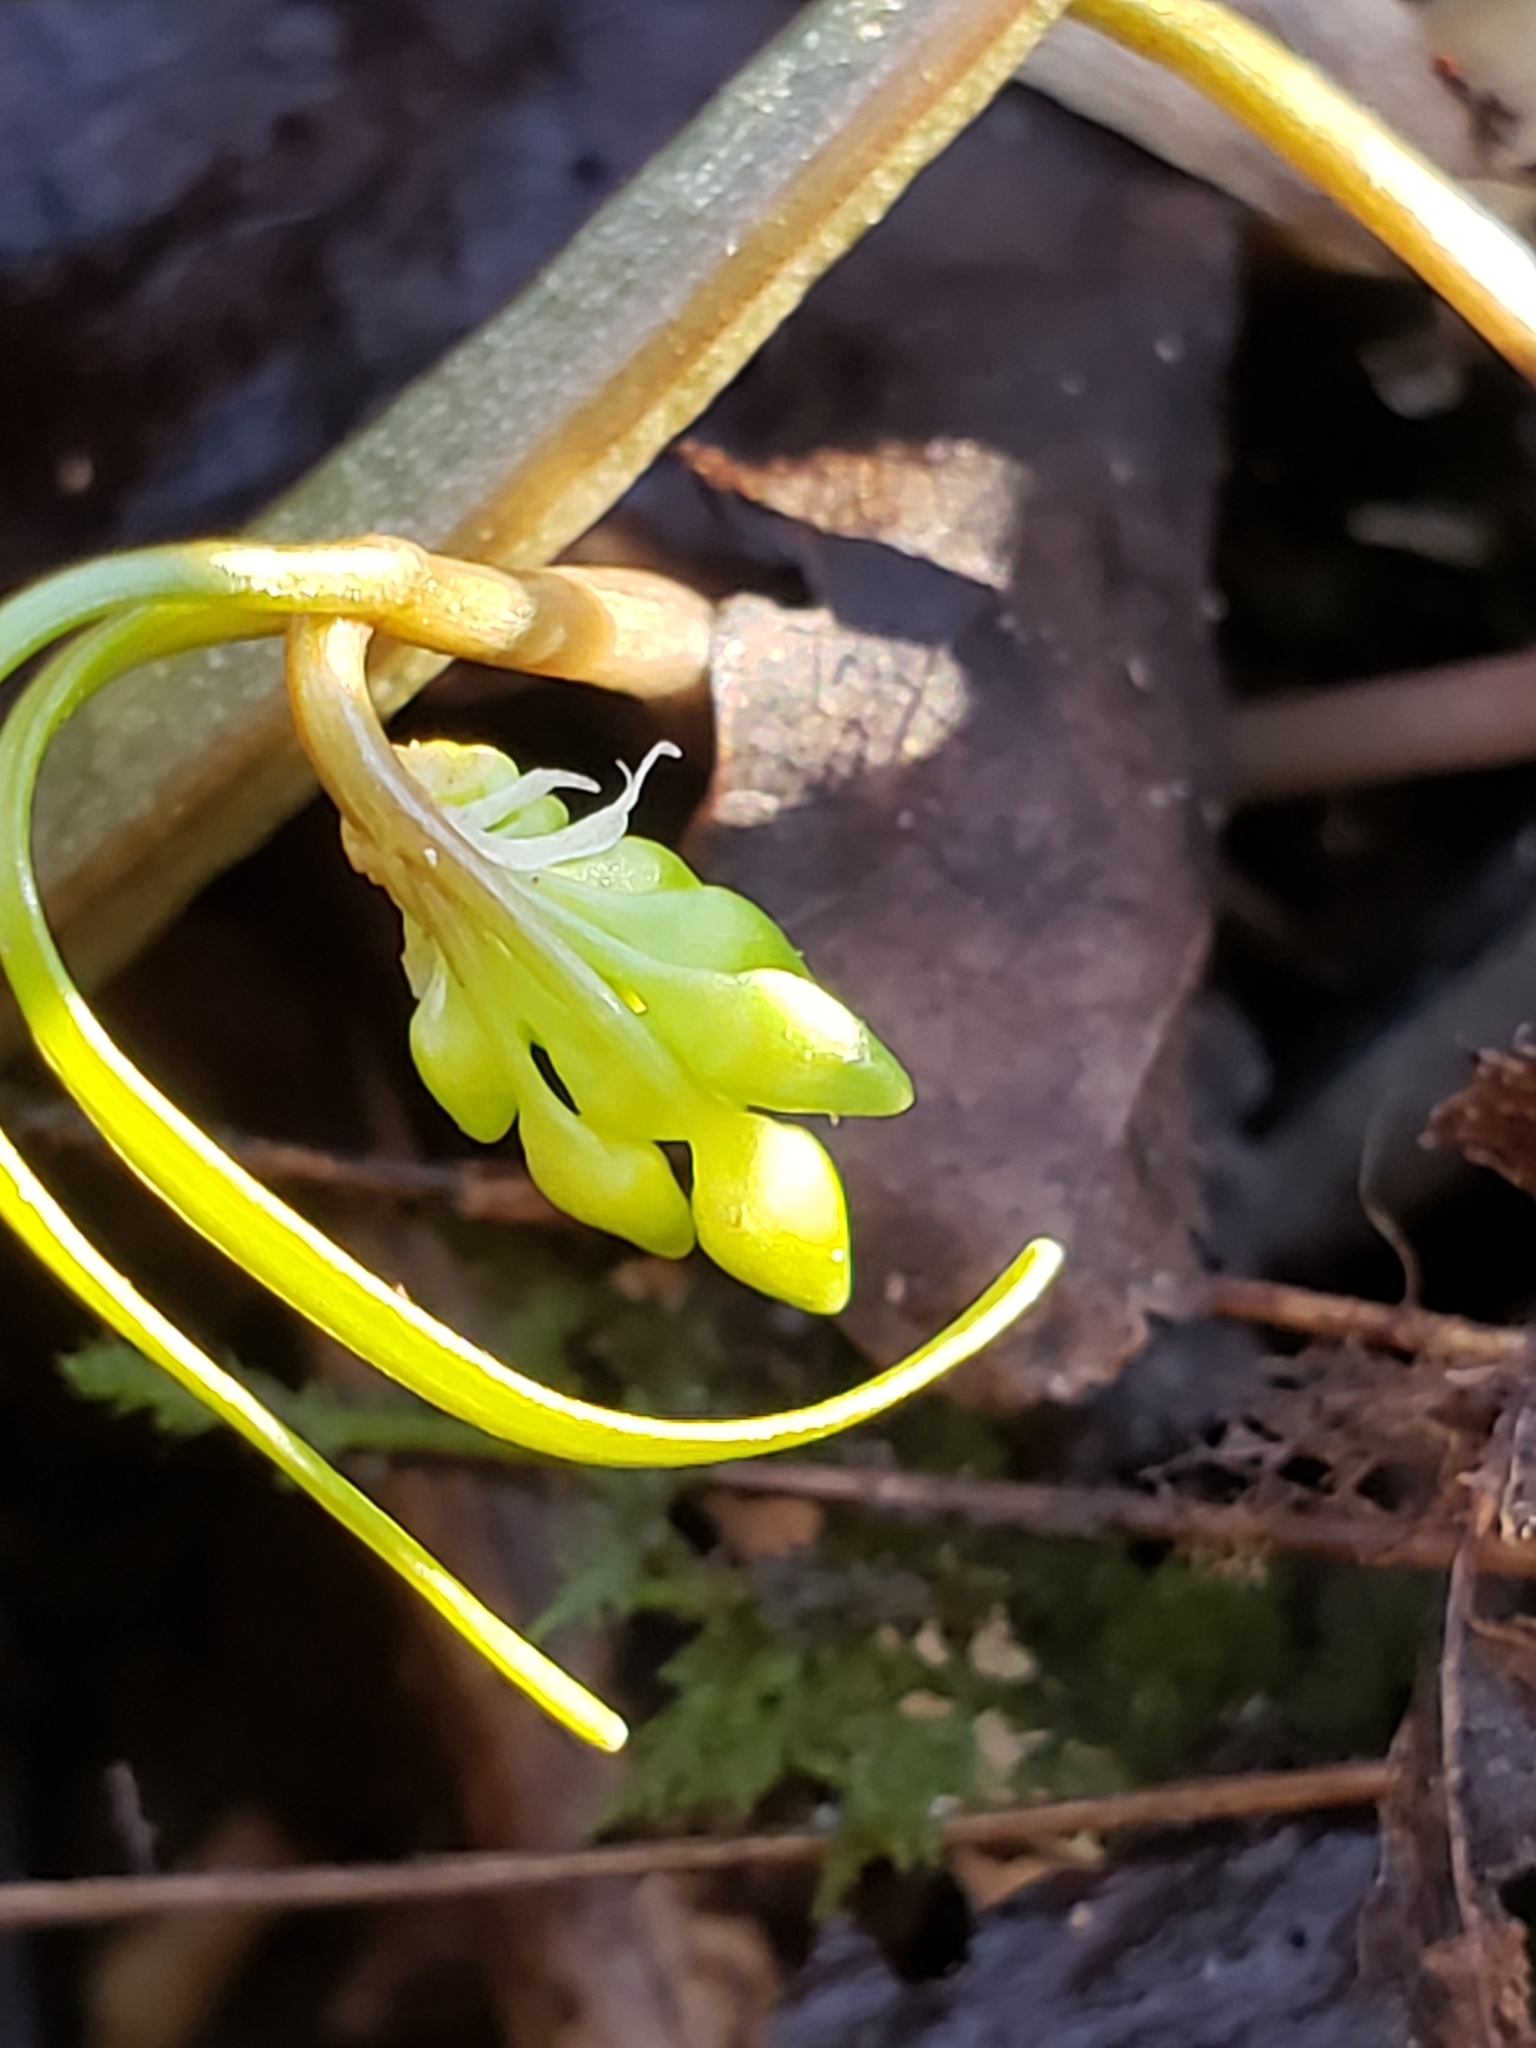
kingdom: Plantae
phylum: Tracheophyta
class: Magnoliopsida
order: Caryophyllales
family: Montiaceae
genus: Claytonia
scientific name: Claytonia virginica
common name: Virginia springbeauty
